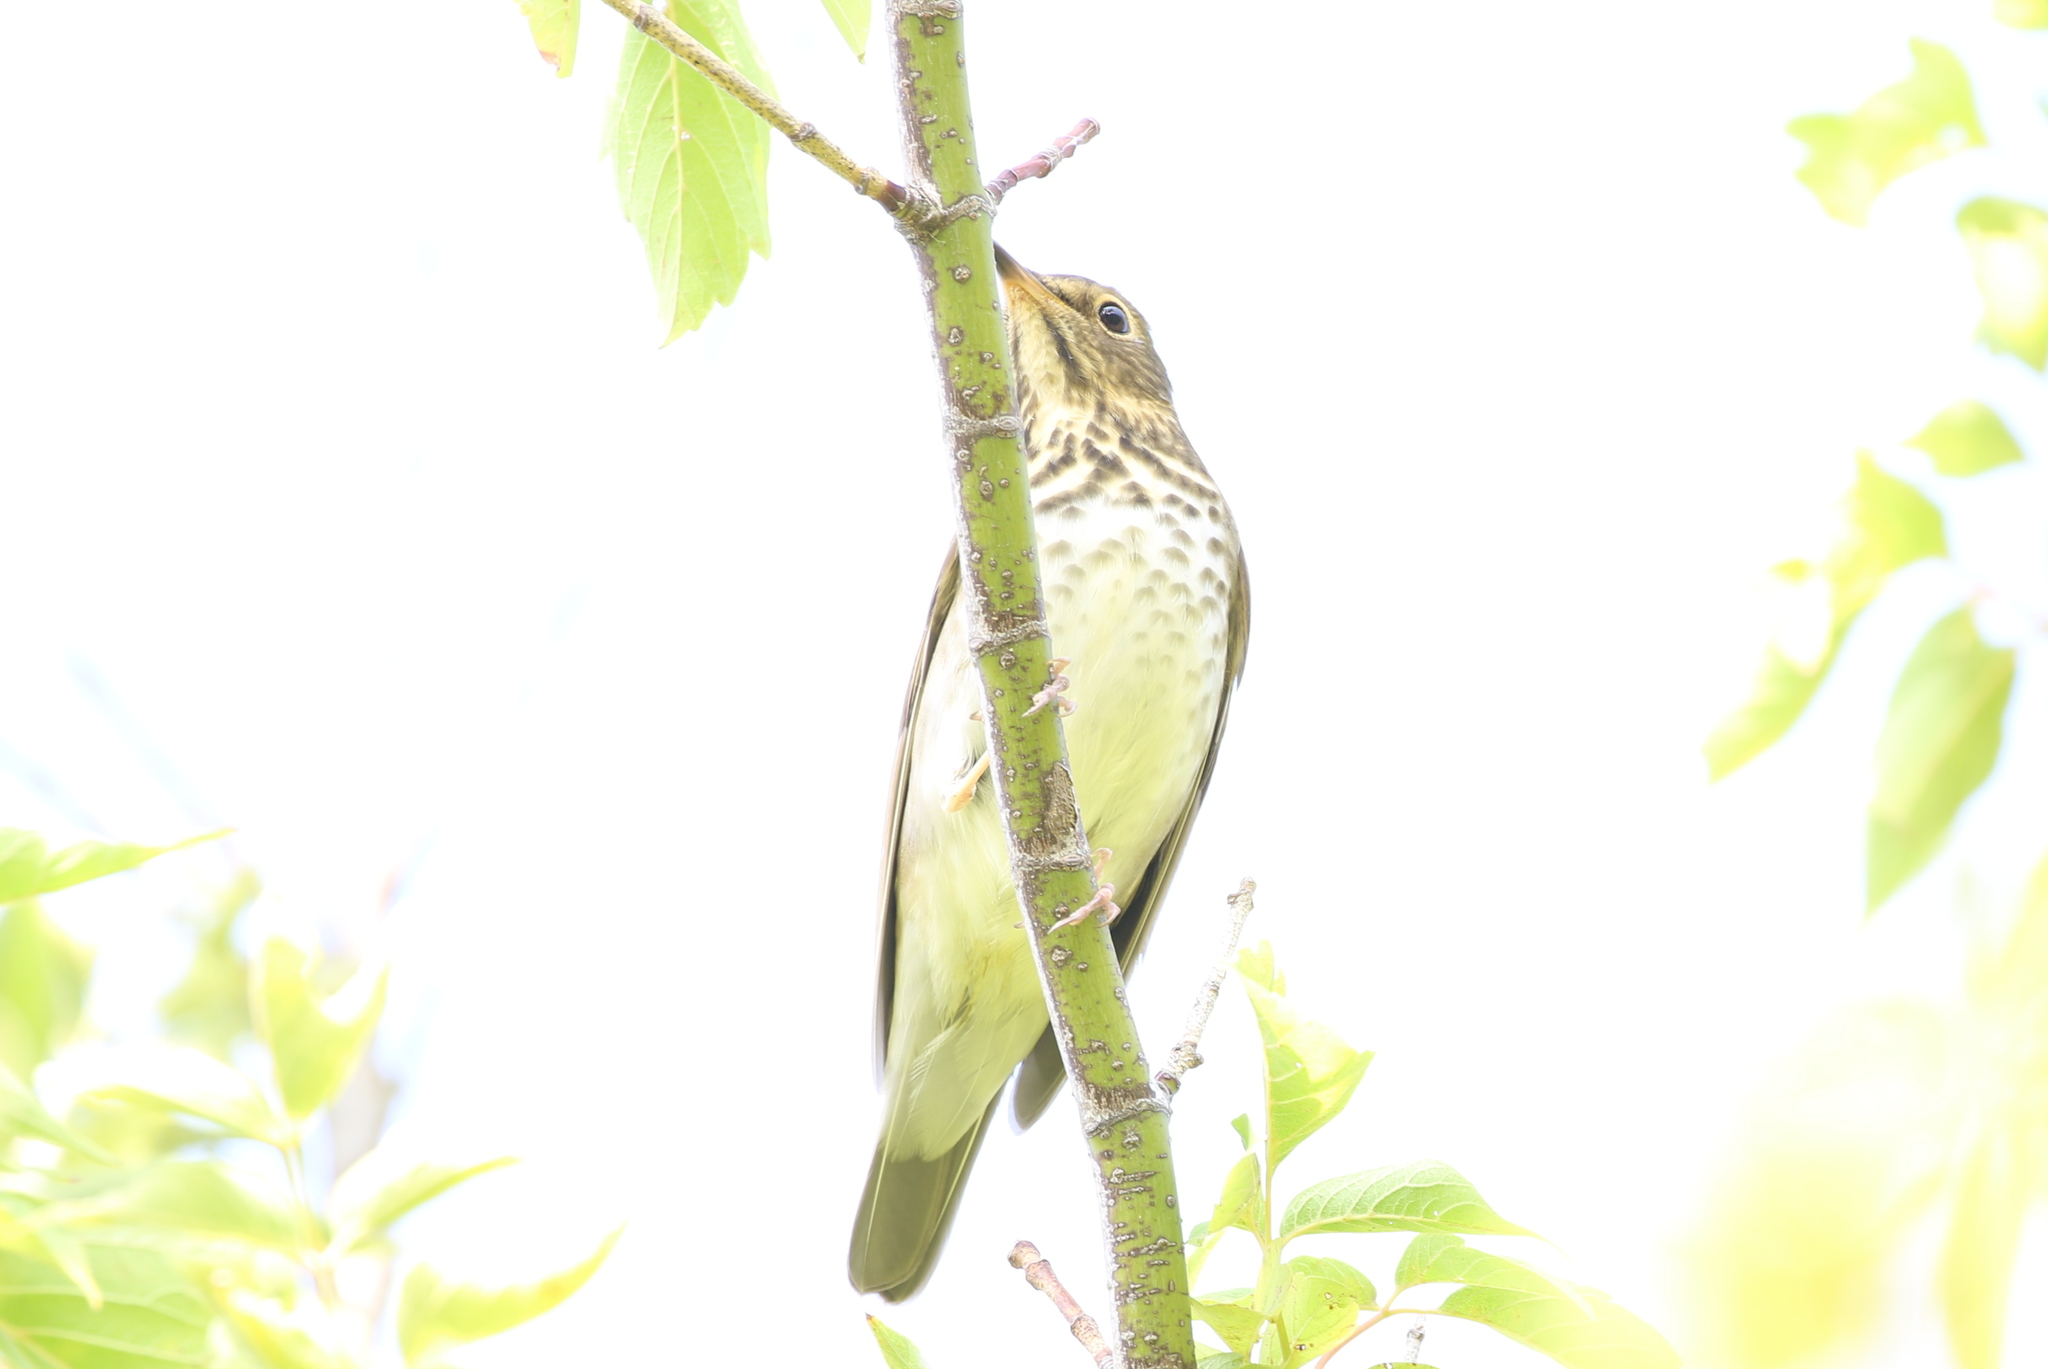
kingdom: Animalia
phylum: Chordata
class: Aves
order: Passeriformes
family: Turdidae
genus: Catharus
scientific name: Catharus ustulatus
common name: Swainson's thrush
